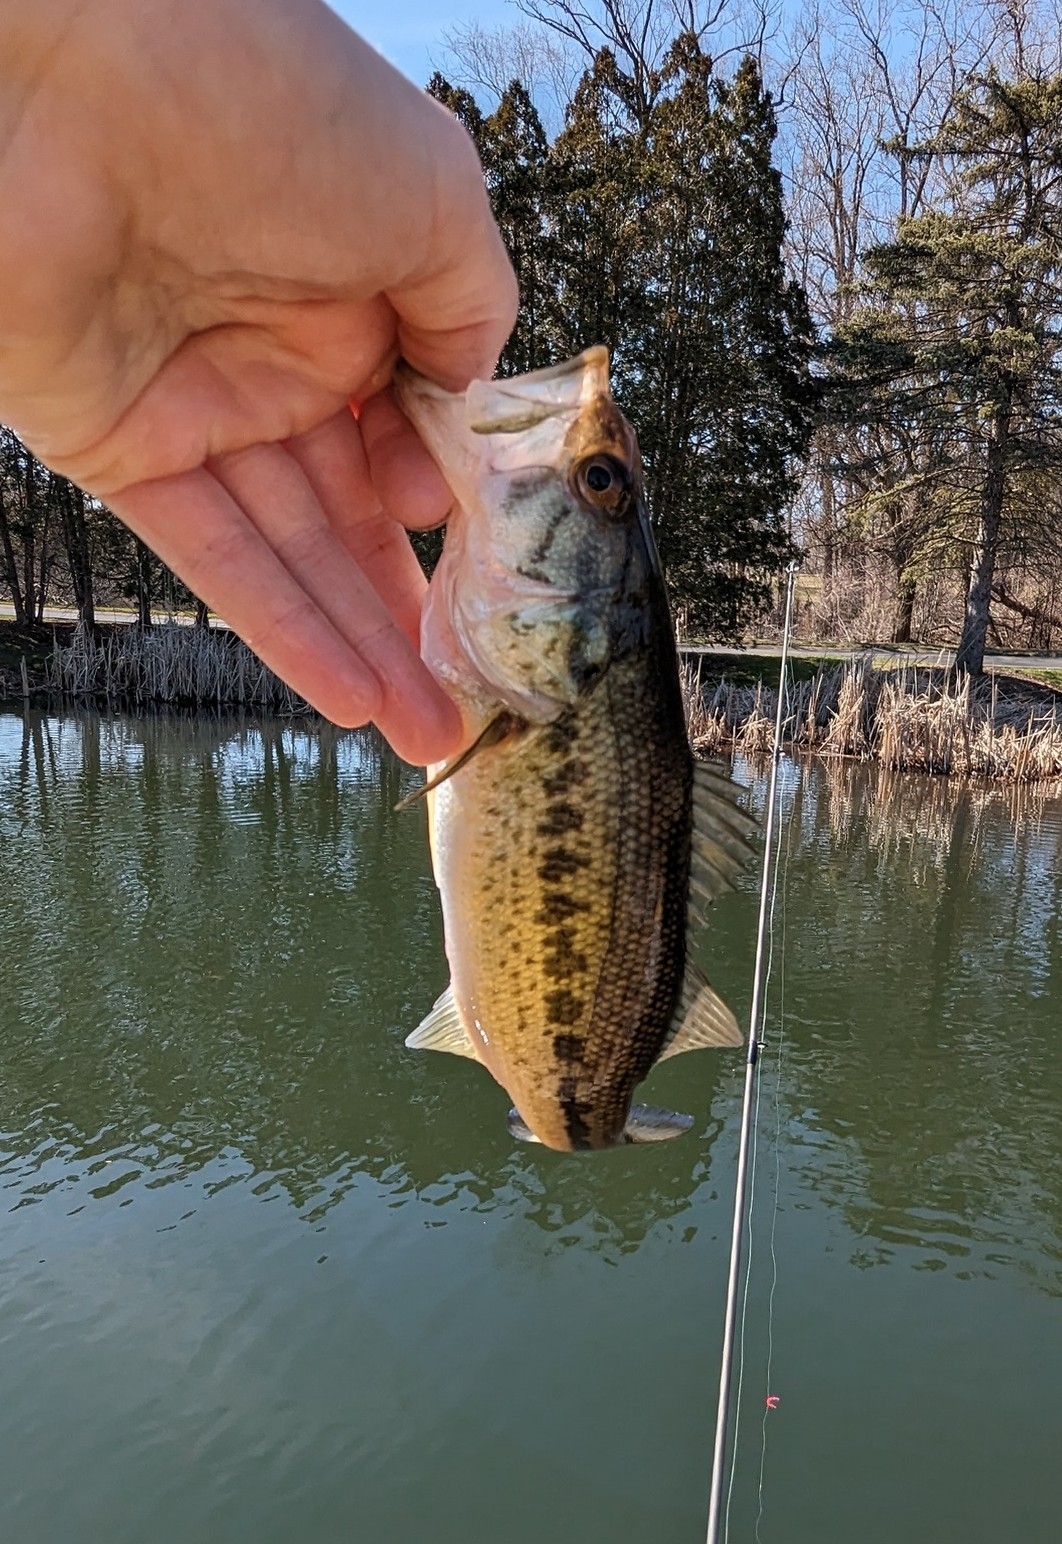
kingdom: Animalia
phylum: Chordata
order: Perciformes
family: Centrarchidae
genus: Micropterus
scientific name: Micropterus
